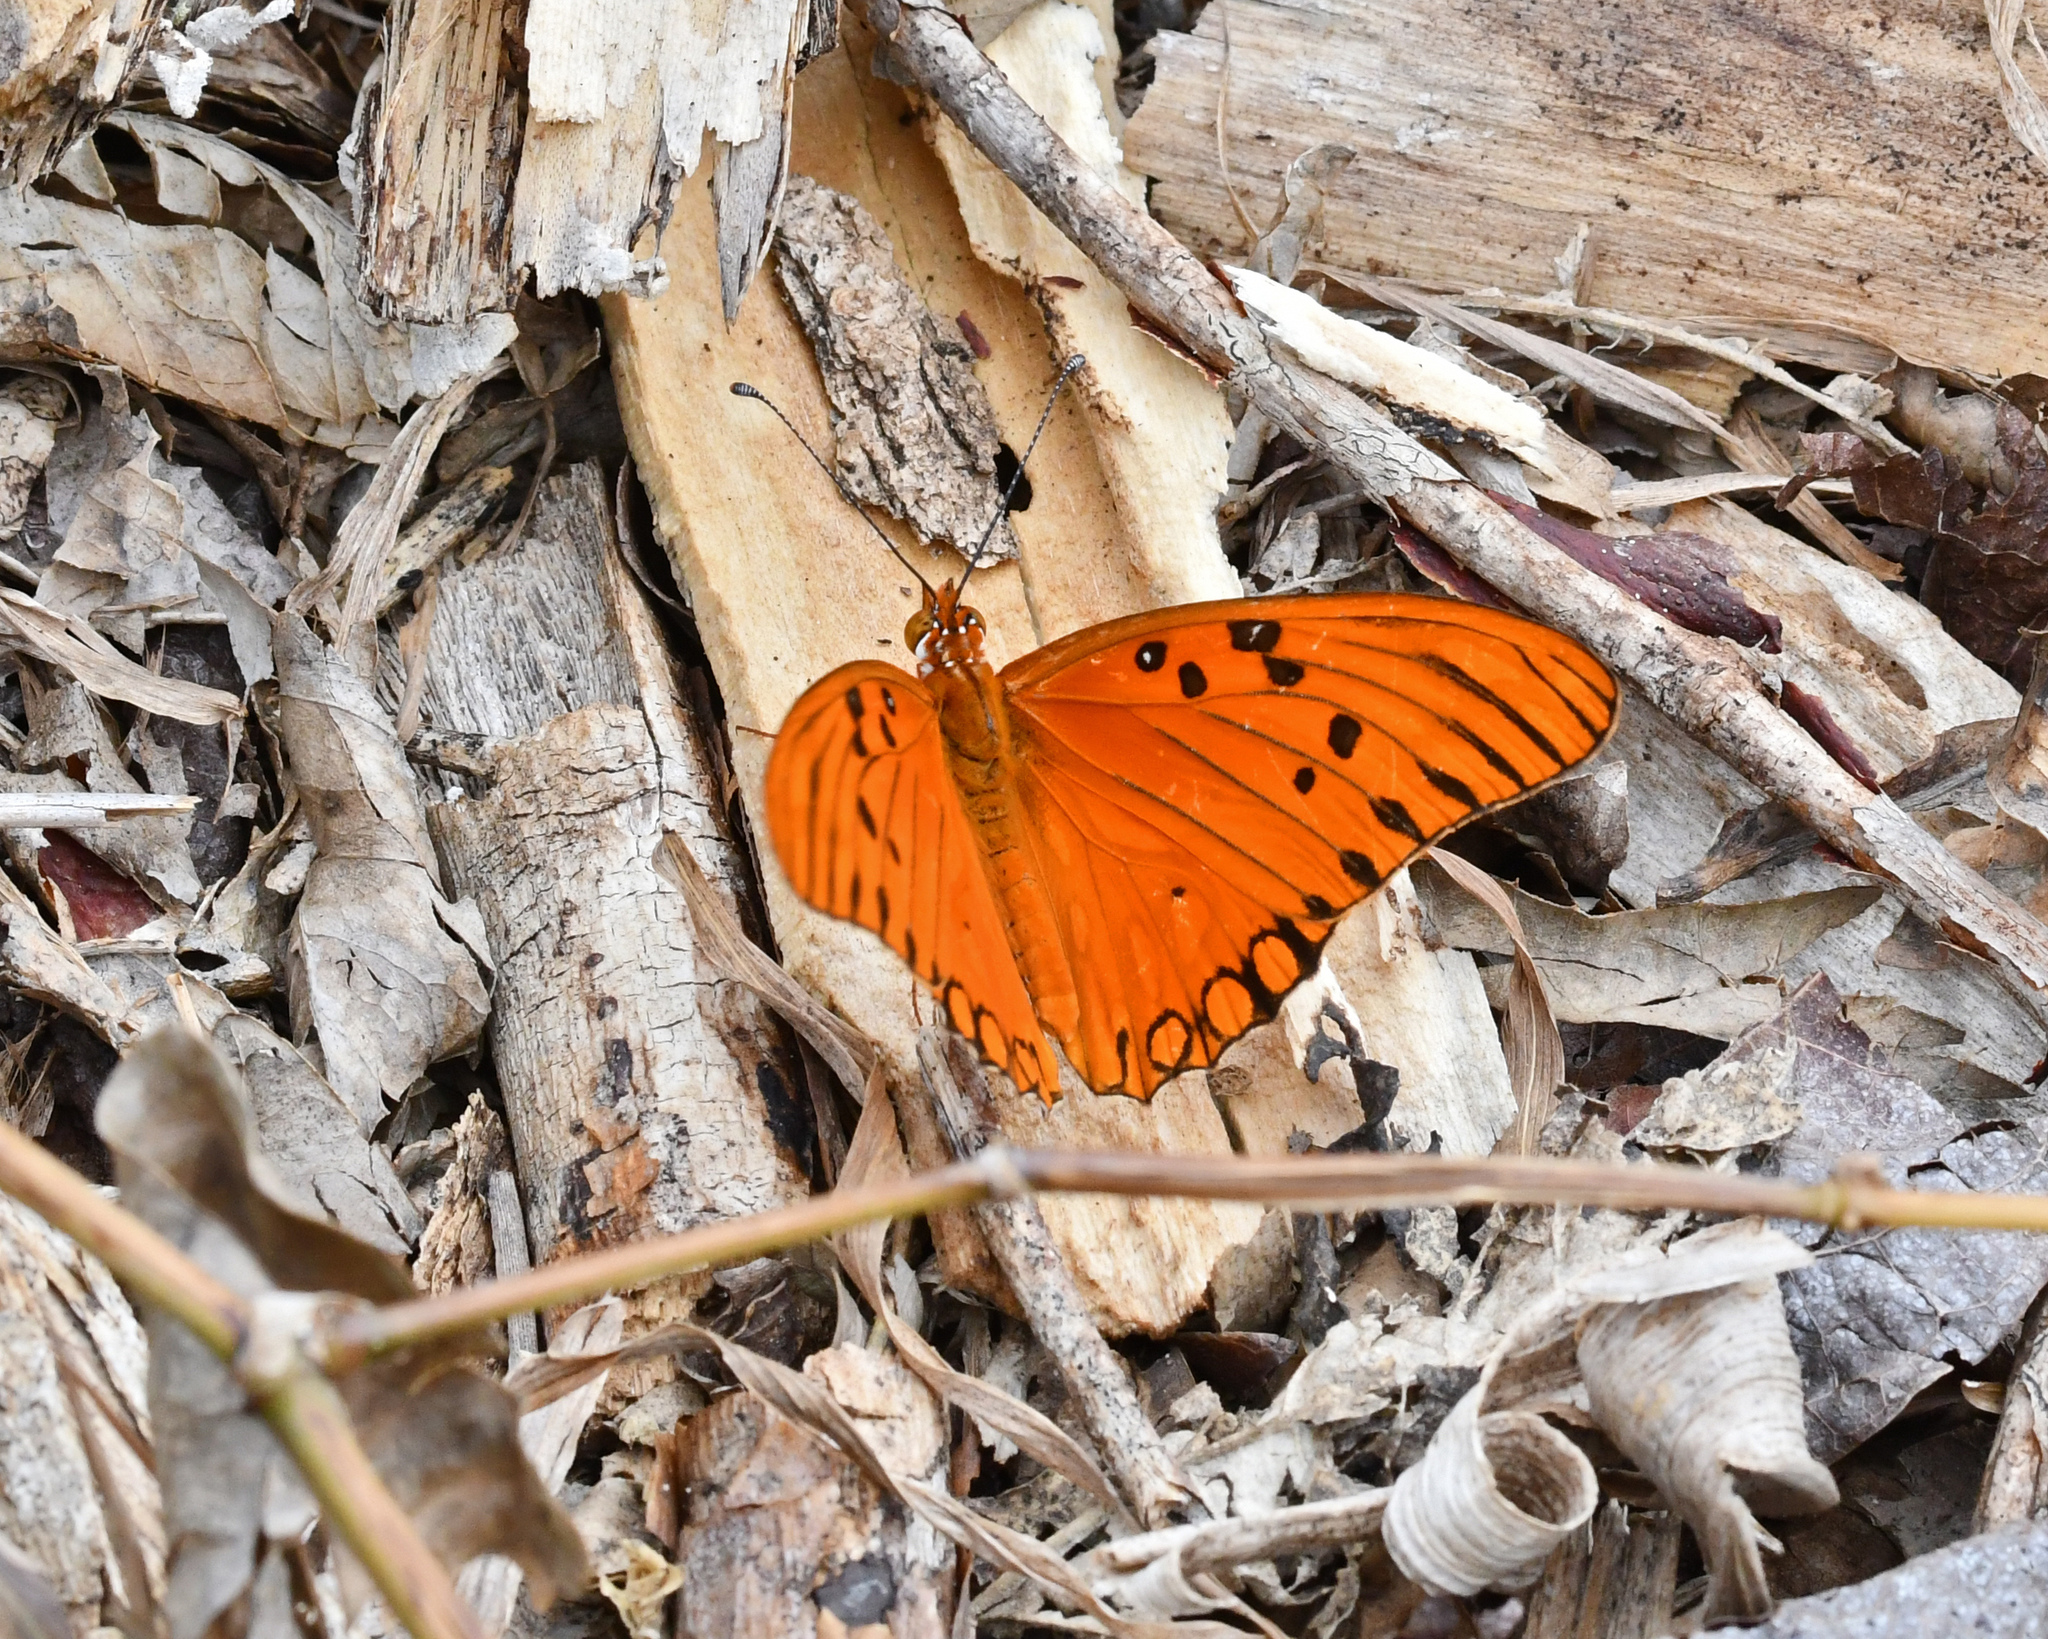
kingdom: Animalia
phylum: Arthropoda
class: Insecta
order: Lepidoptera
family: Nymphalidae
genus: Dione
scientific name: Dione vanillae
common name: Gulf fritillary
